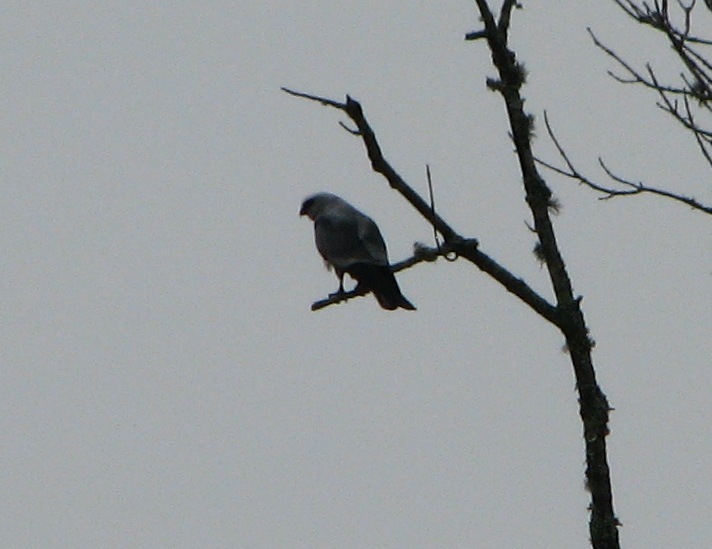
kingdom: Animalia
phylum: Chordata
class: Aves
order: Accipitriformes
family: Accipitridae
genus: Ictinia
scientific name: Ictinia mississippiensis
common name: Mississippi kite
